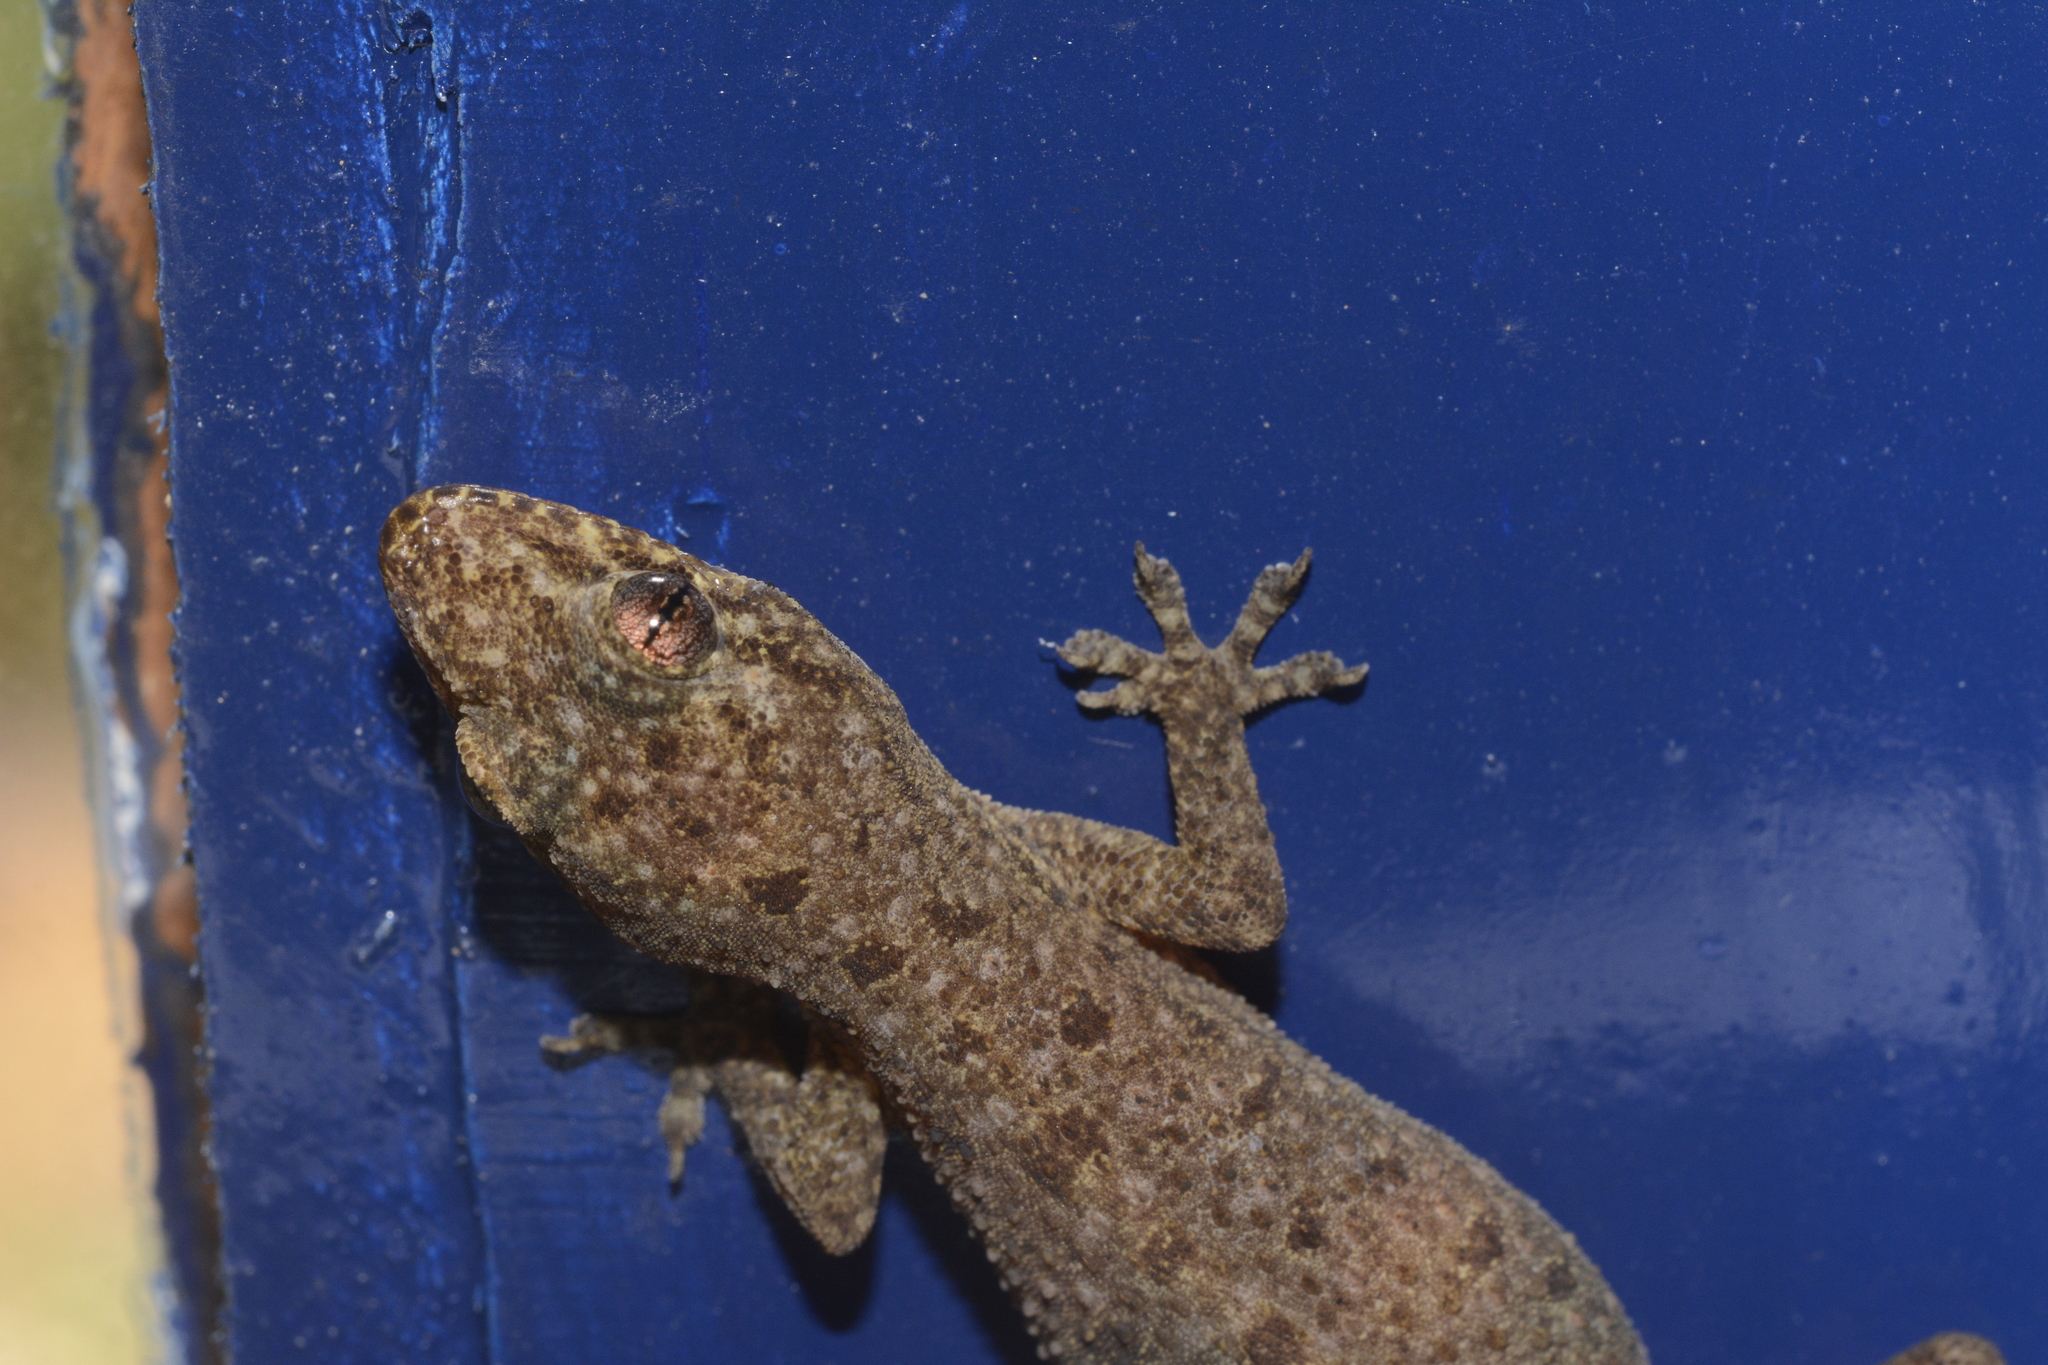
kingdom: Animalia
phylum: Chordata
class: Squamata
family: Gekkonidae
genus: Hemidactylus
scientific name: Hemidactylus parvimaculatus
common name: Spotted house gecko
